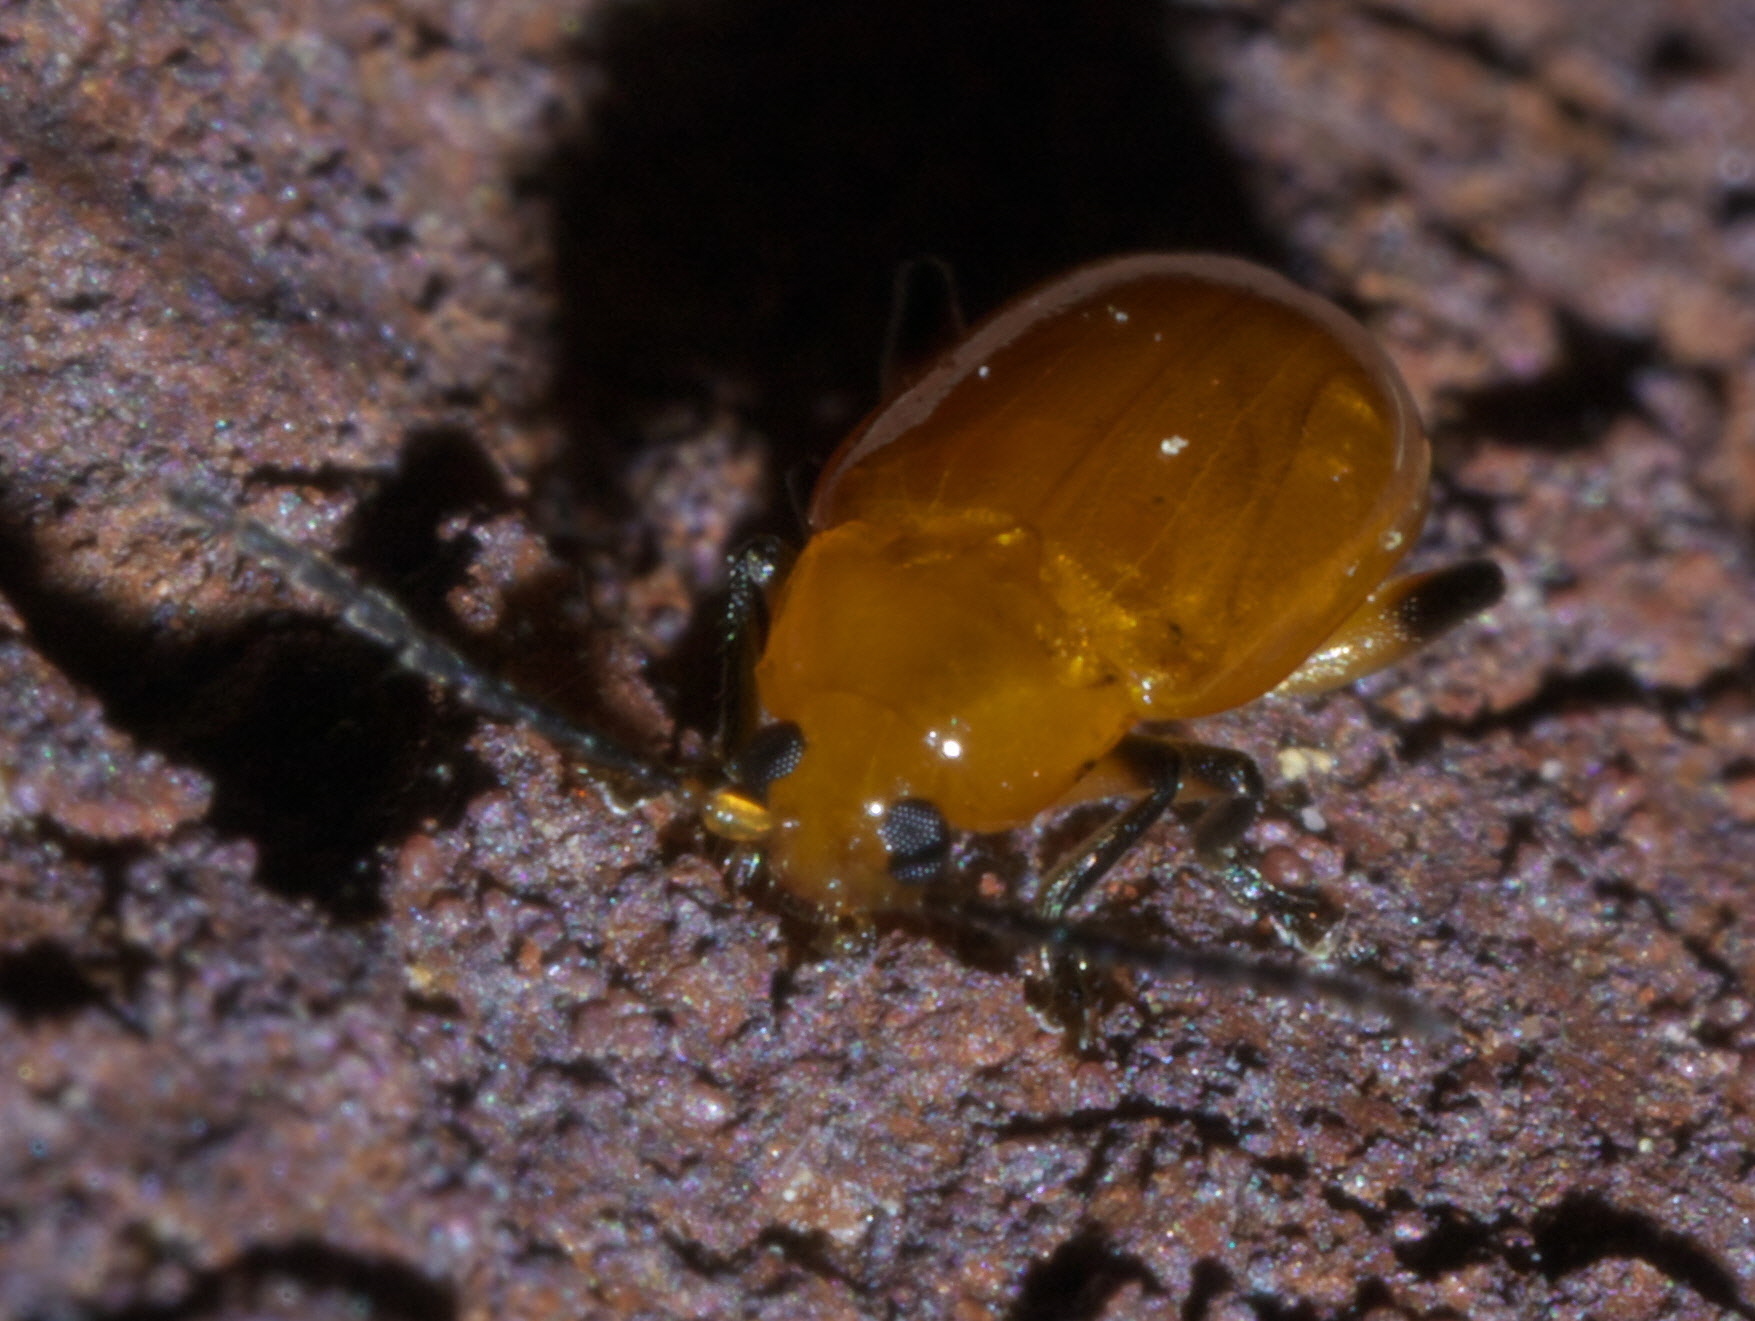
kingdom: Animalia
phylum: Arthropoda
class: Insecta
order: Coleoptera
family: Chrysomelidae
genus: Parchicola
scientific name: Parchicola tibialis
